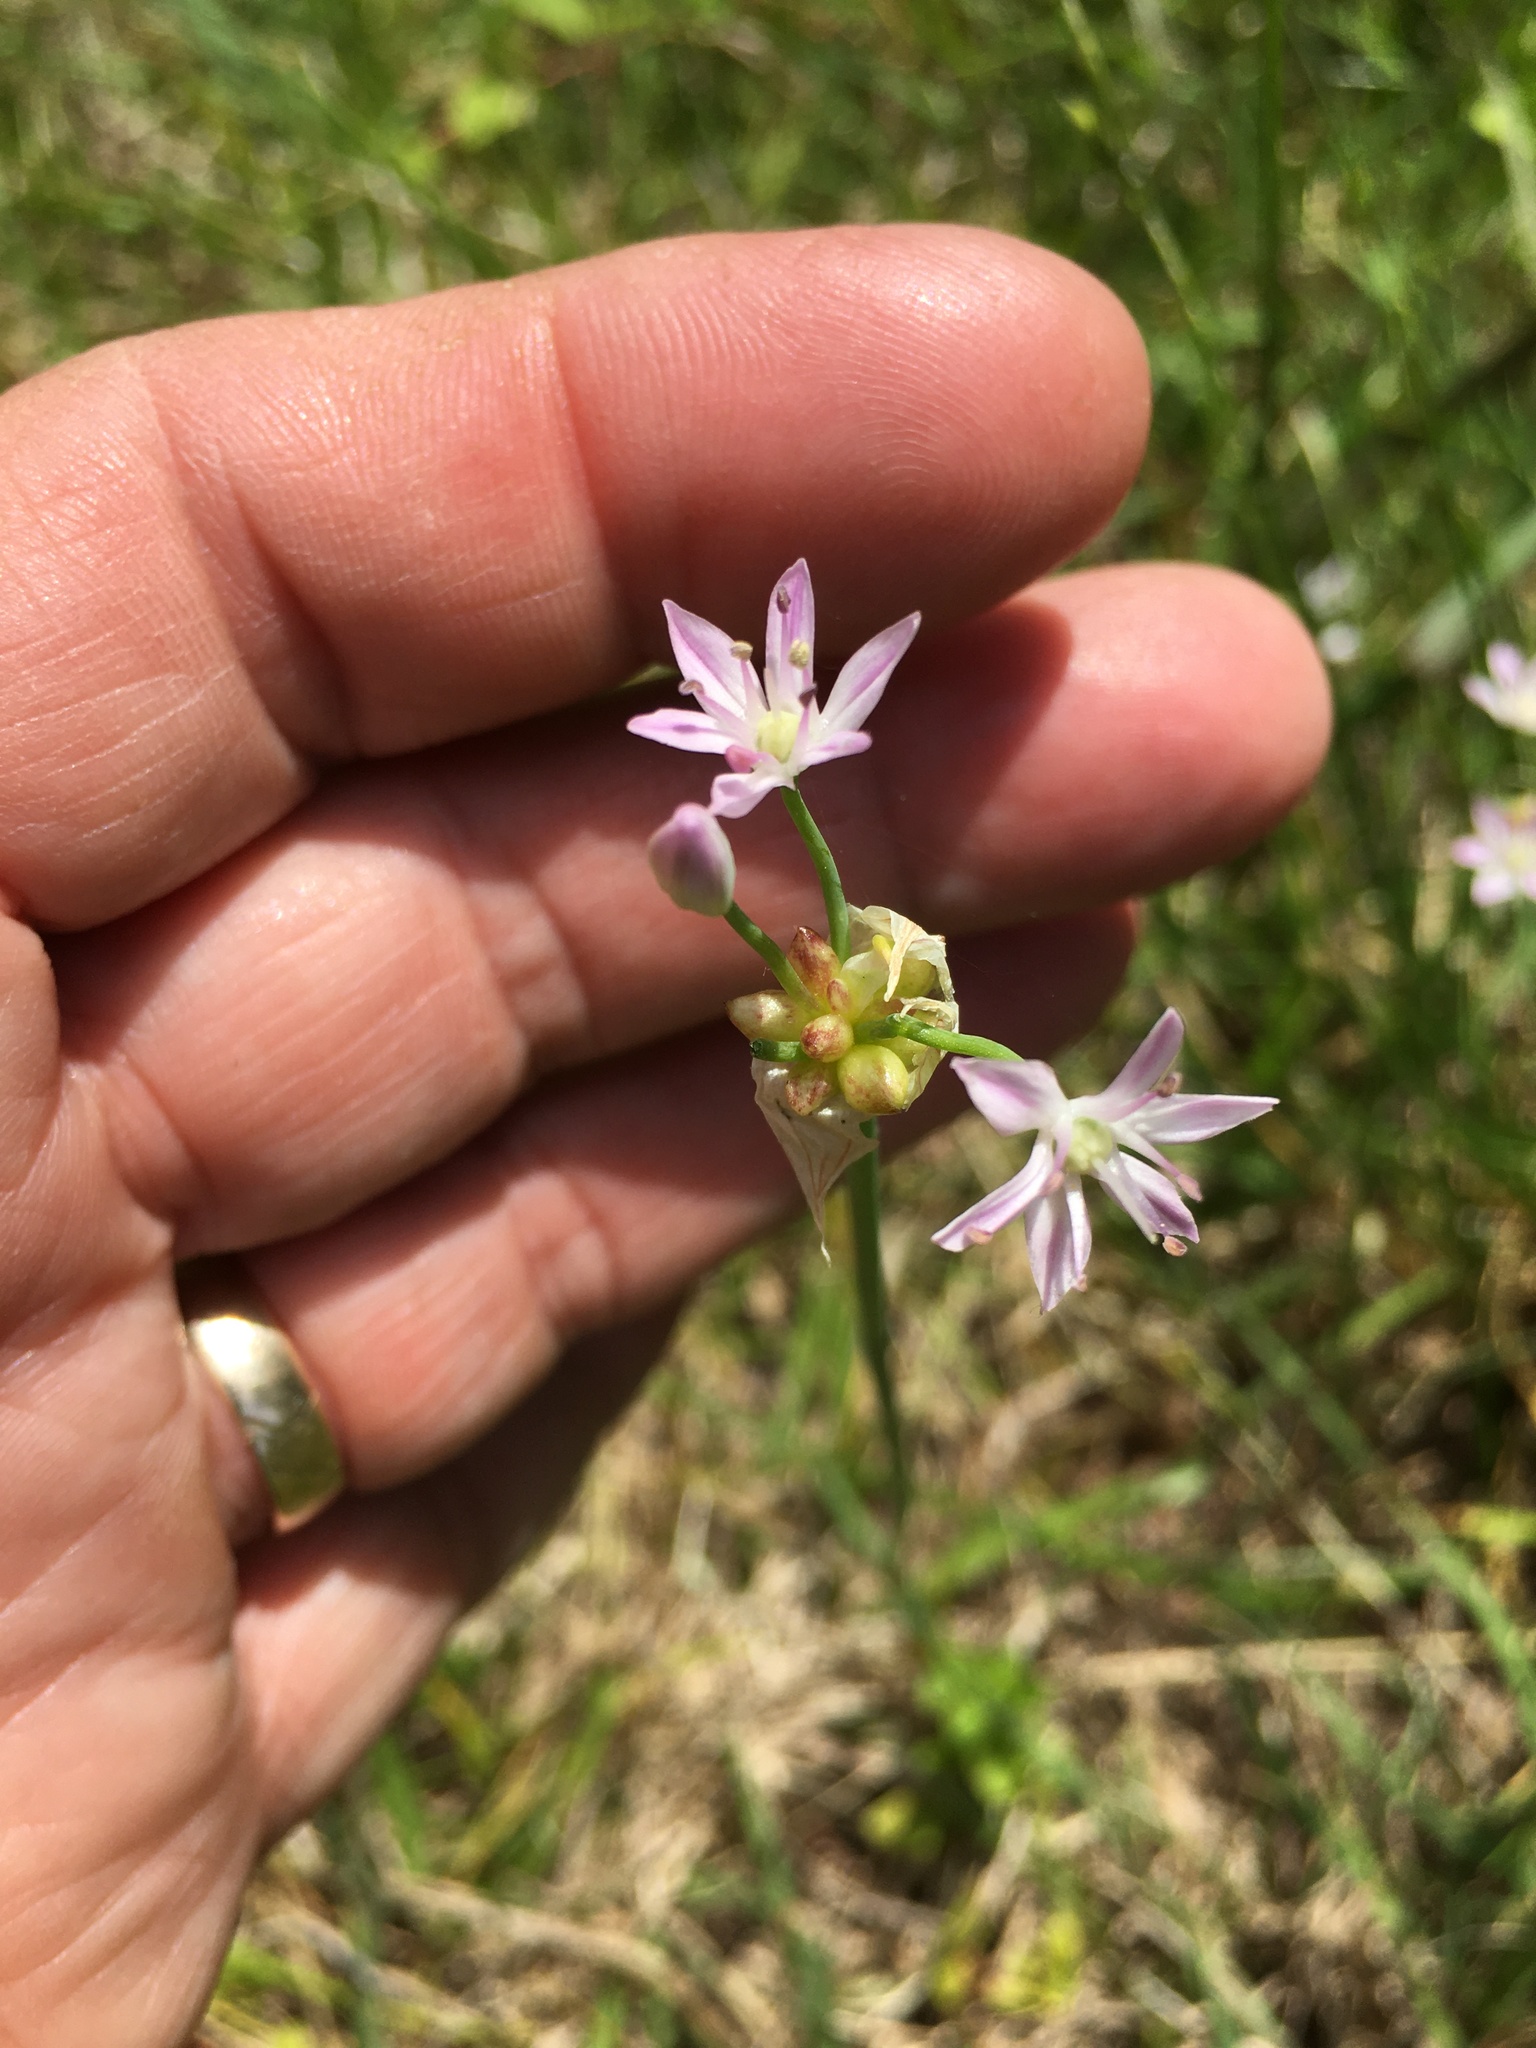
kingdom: Plantae
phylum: Tracheophyta
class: Liliopsida
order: Asparagales
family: Amaryllidaceae
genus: Allium
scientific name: Allium canadense
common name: Meadow garlic
